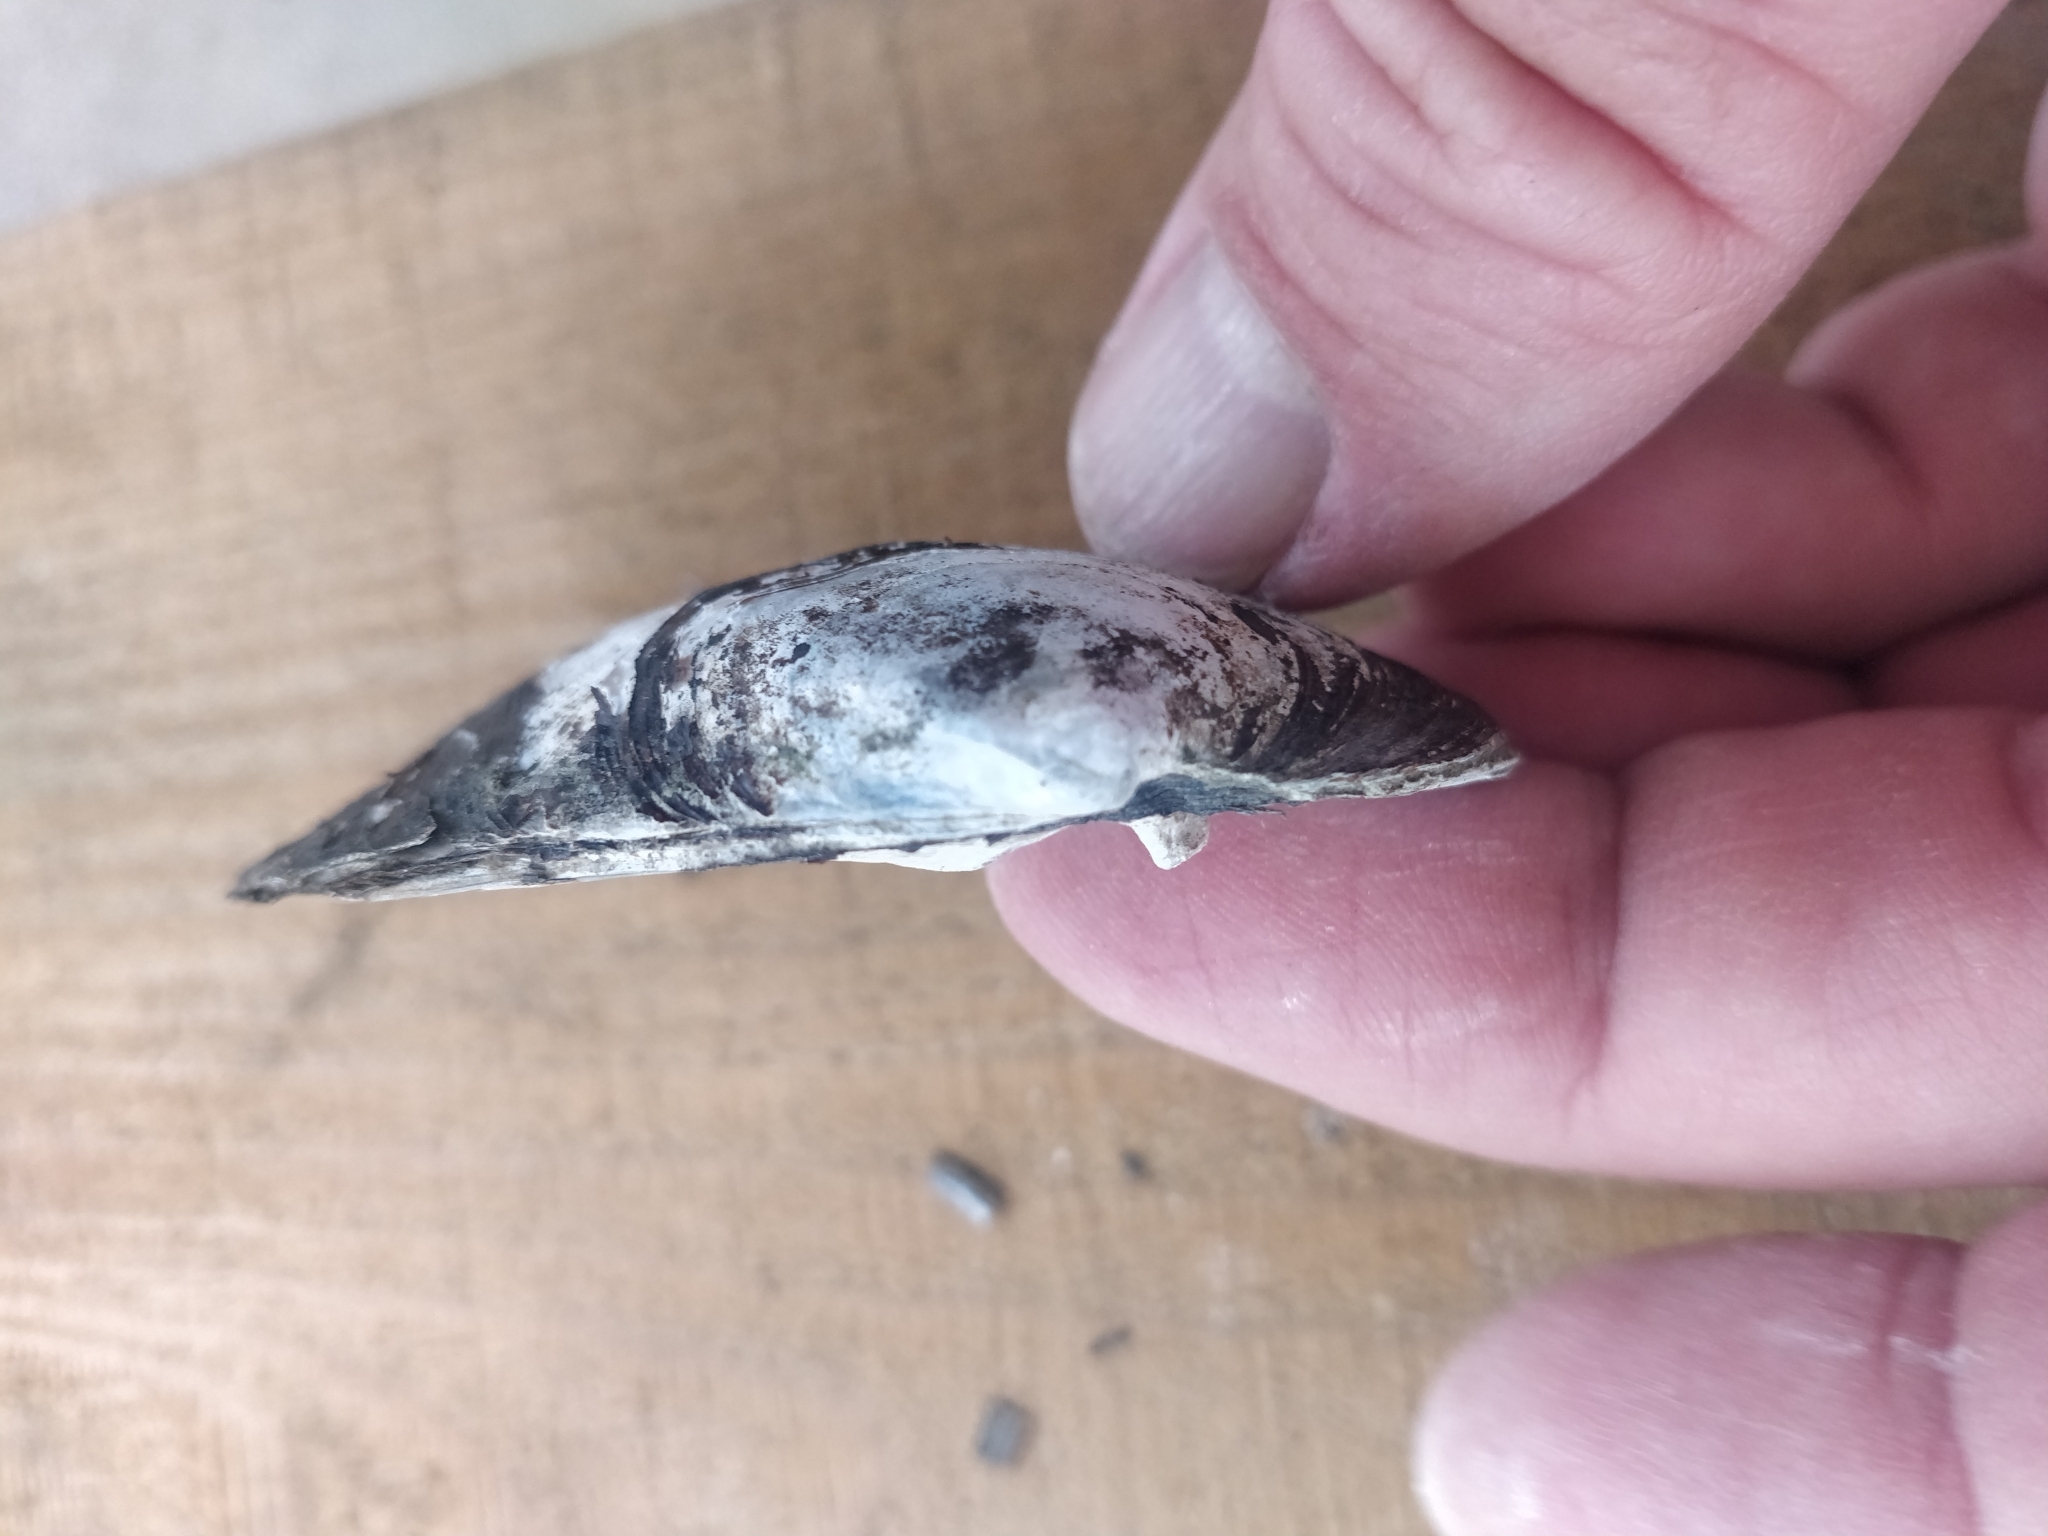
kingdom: Animalia
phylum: Mollusca
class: Bivalvia
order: Unionida
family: Unionidae
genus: Amblema
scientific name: Amblema plicata
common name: Threeridge
